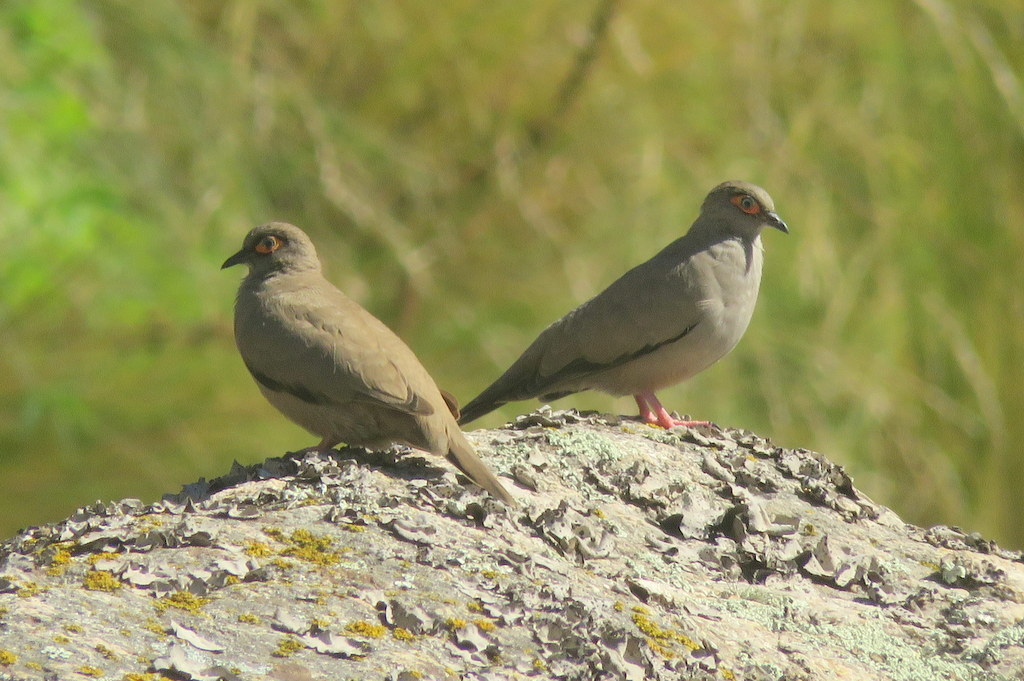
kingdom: Animalia
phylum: Chordata
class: Aves
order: Columbiformes
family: Columbidae
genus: Metriopelia
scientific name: Metriopelia morenoi
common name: Moreno's ground dove
